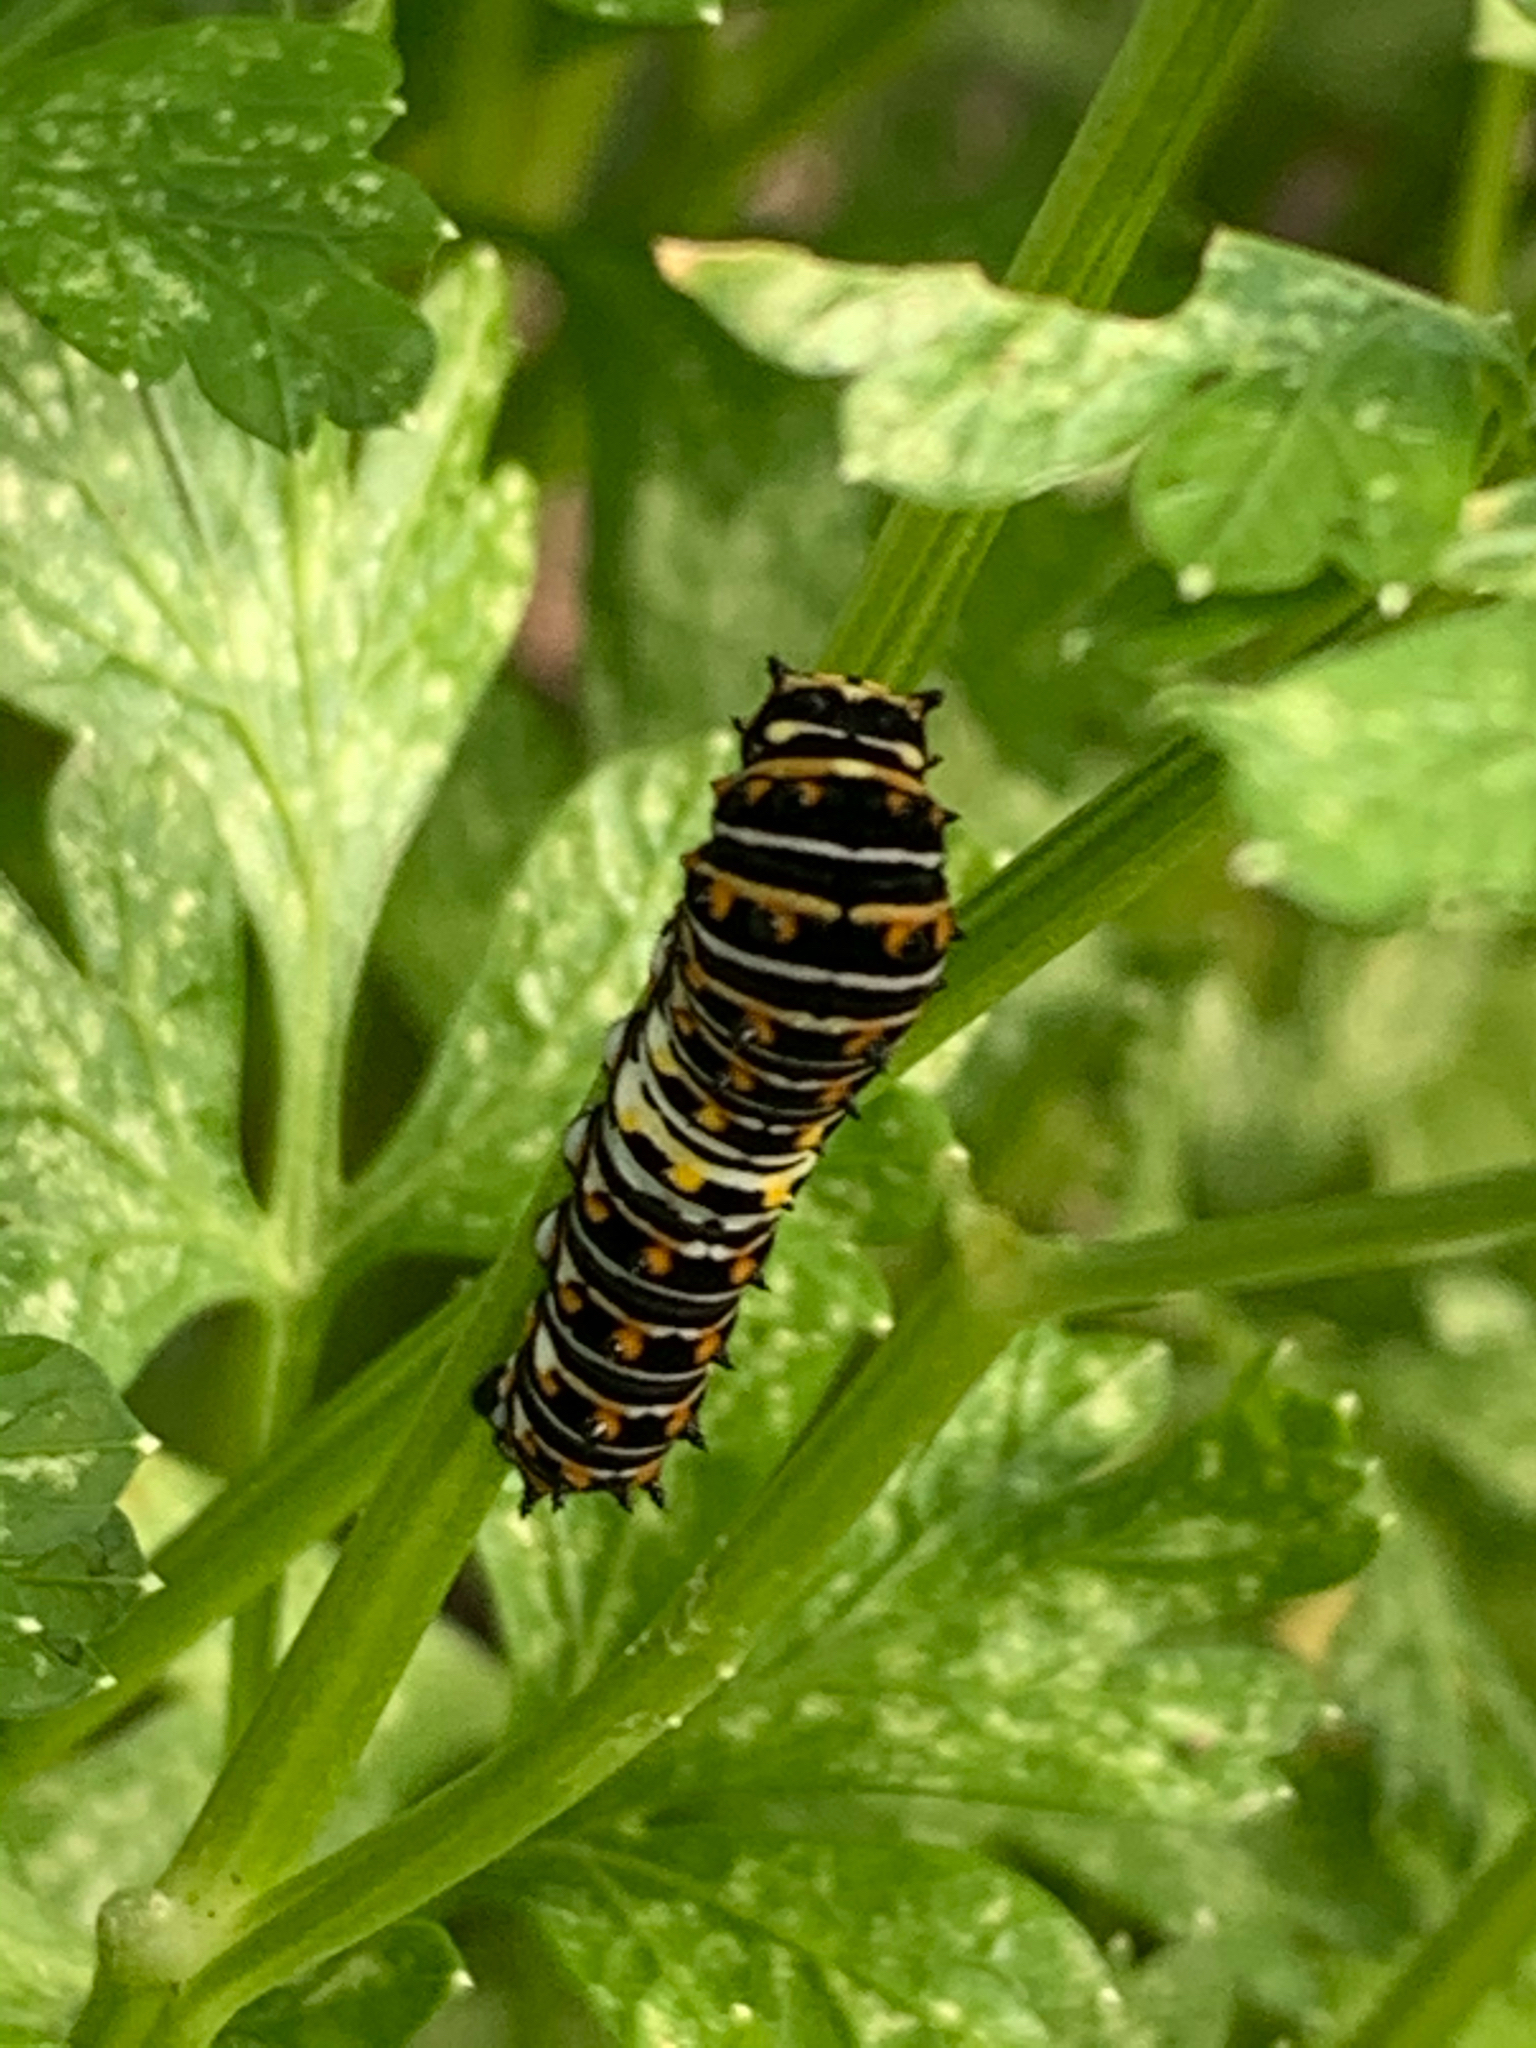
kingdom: Animalia
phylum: Arthropoda
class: Insecta
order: Lepidoptera
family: Papilionidae
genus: Papilio
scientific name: Papilio polyxenes
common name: Black swallowtail
